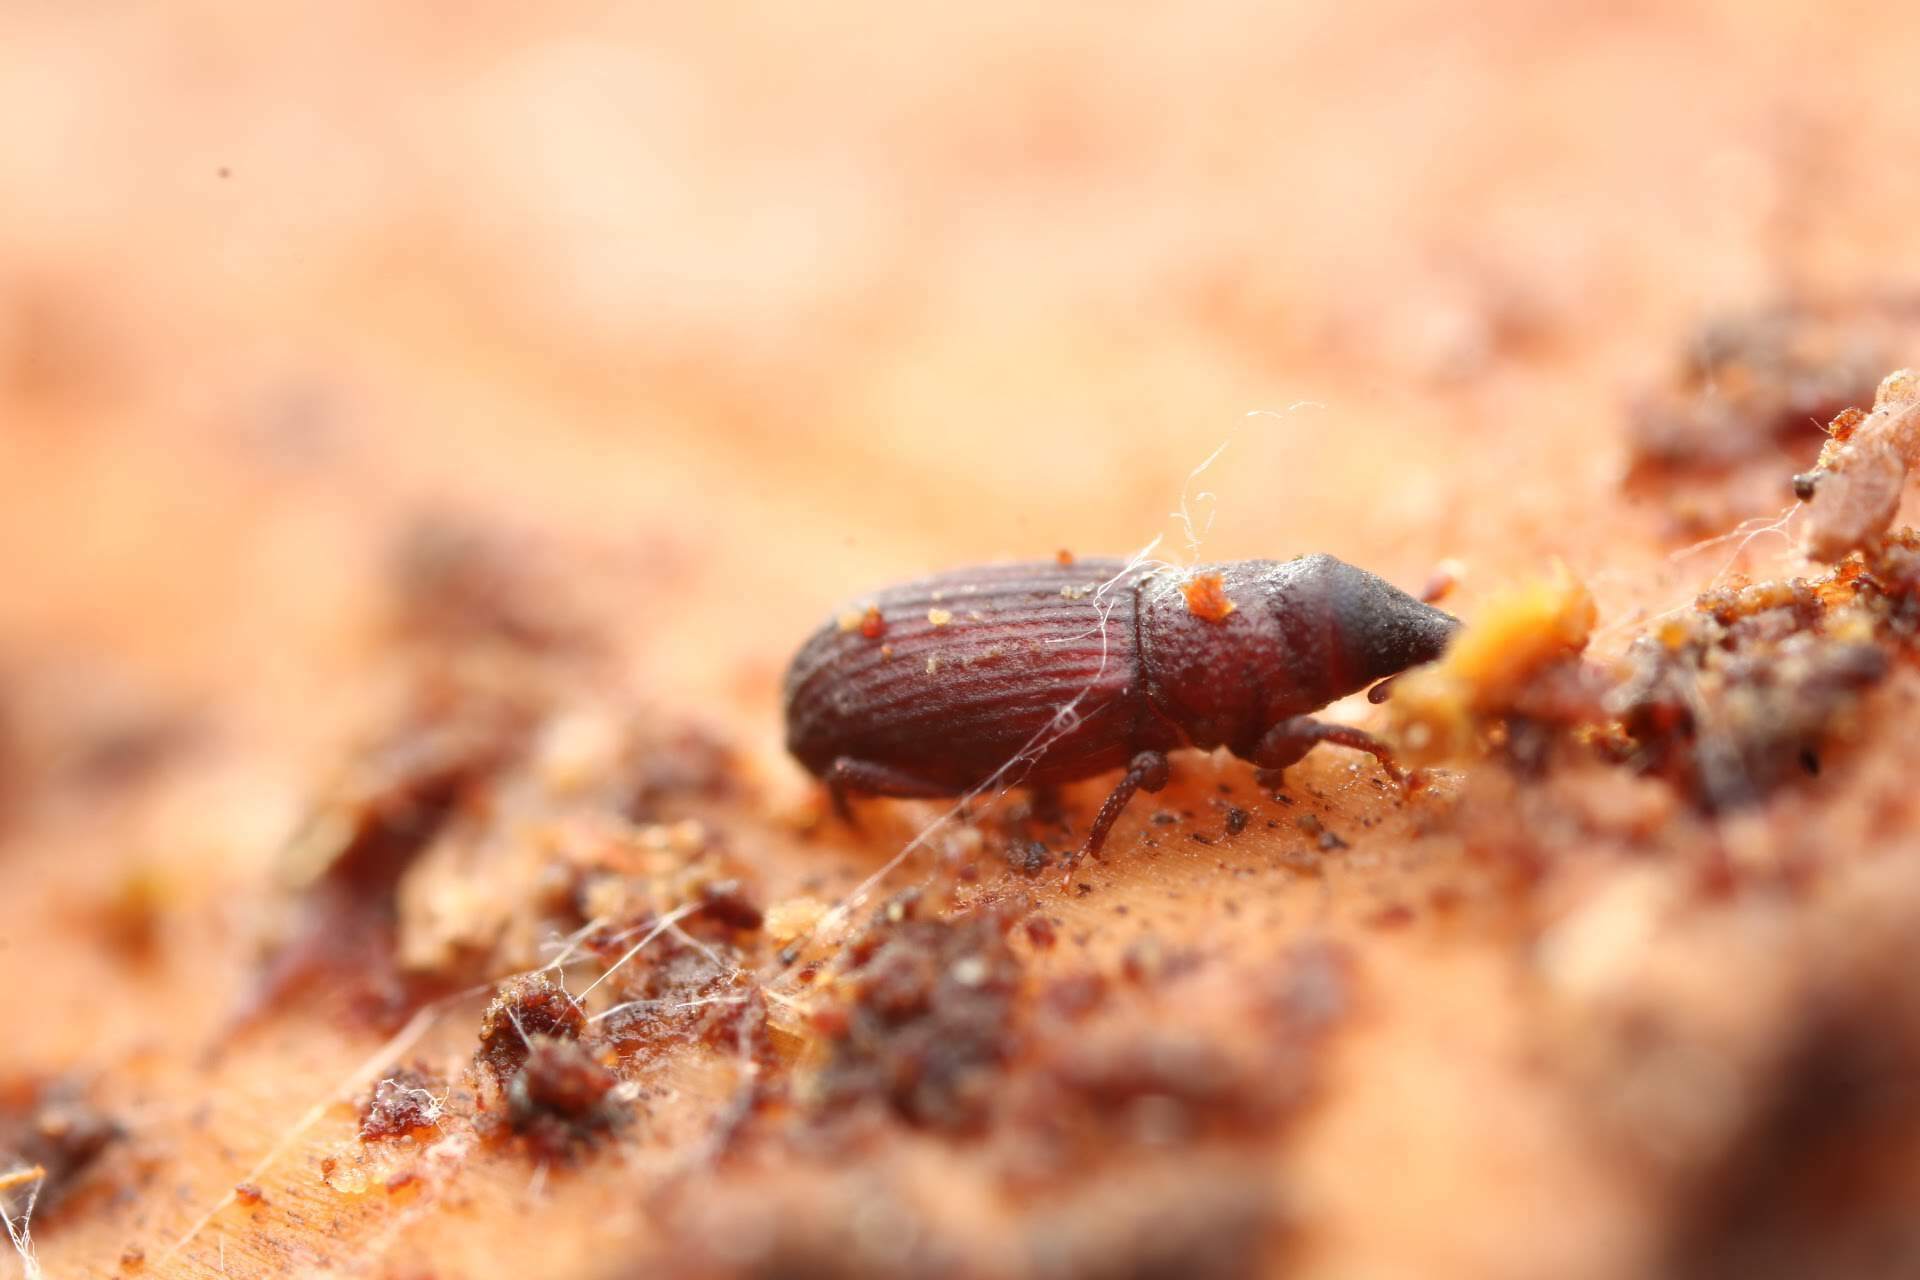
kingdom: Animalia
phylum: Arthropoda
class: Insecta
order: Coleoptera
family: Dryophthoridae
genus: Dryophthorus
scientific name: Dryophthorus americanus
